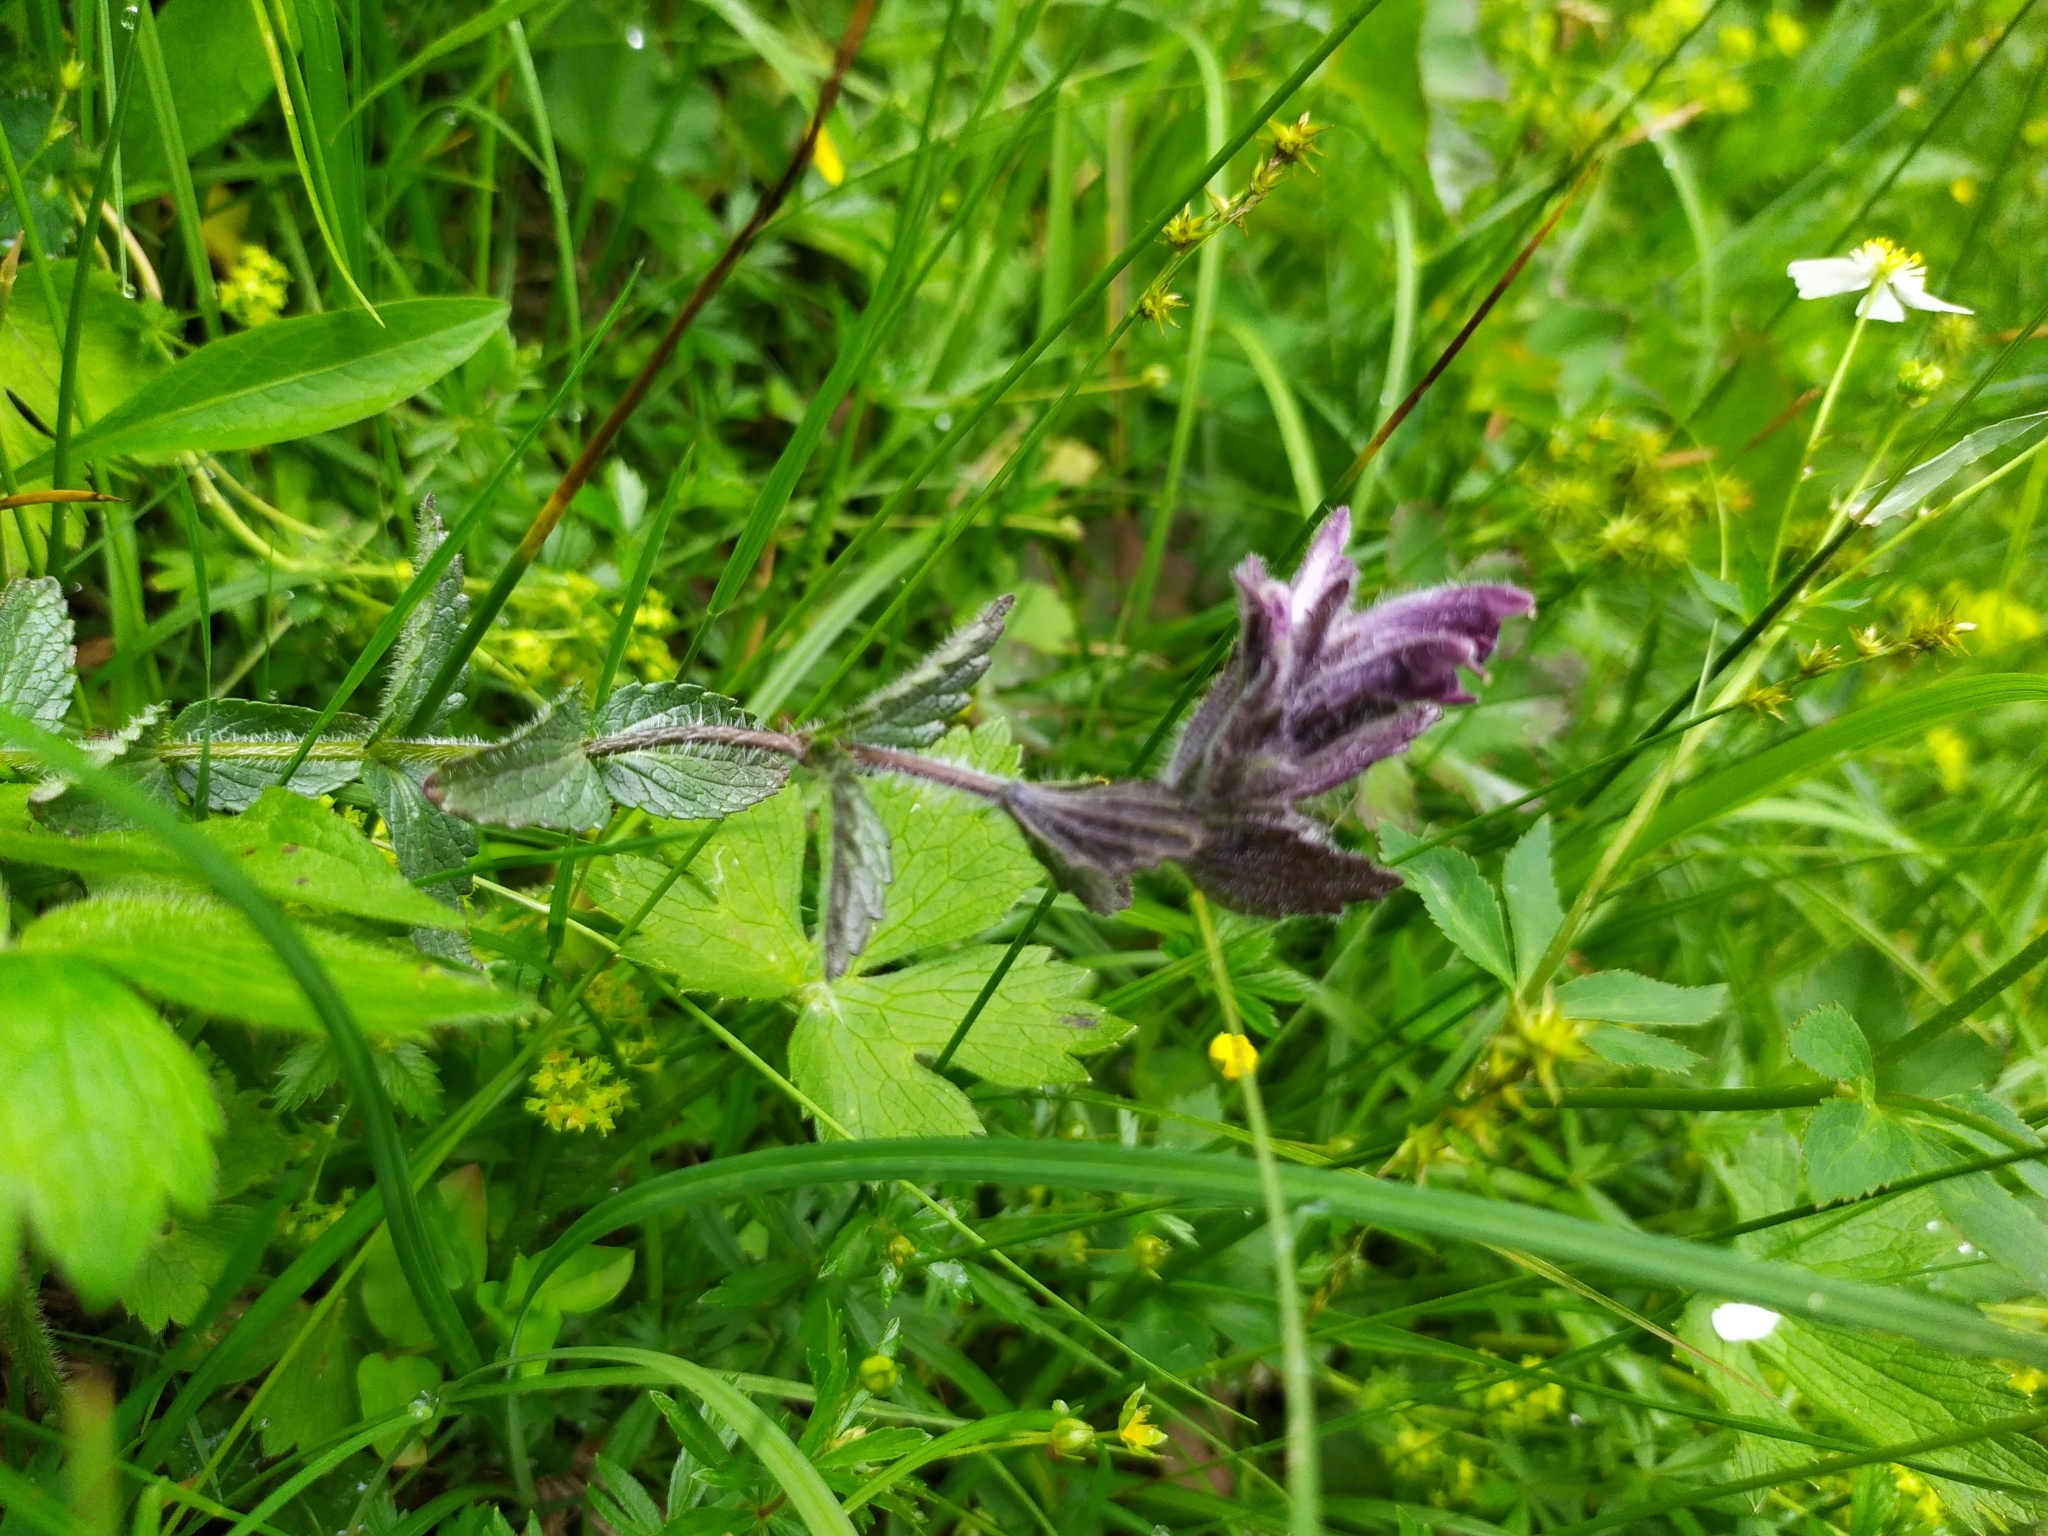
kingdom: Plantae
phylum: Tracheophyta
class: Magnoliopsida
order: Lamiales
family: Orobanchaceae
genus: Bartsia
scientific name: Bartsia alpina
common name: Alpine bartsia
